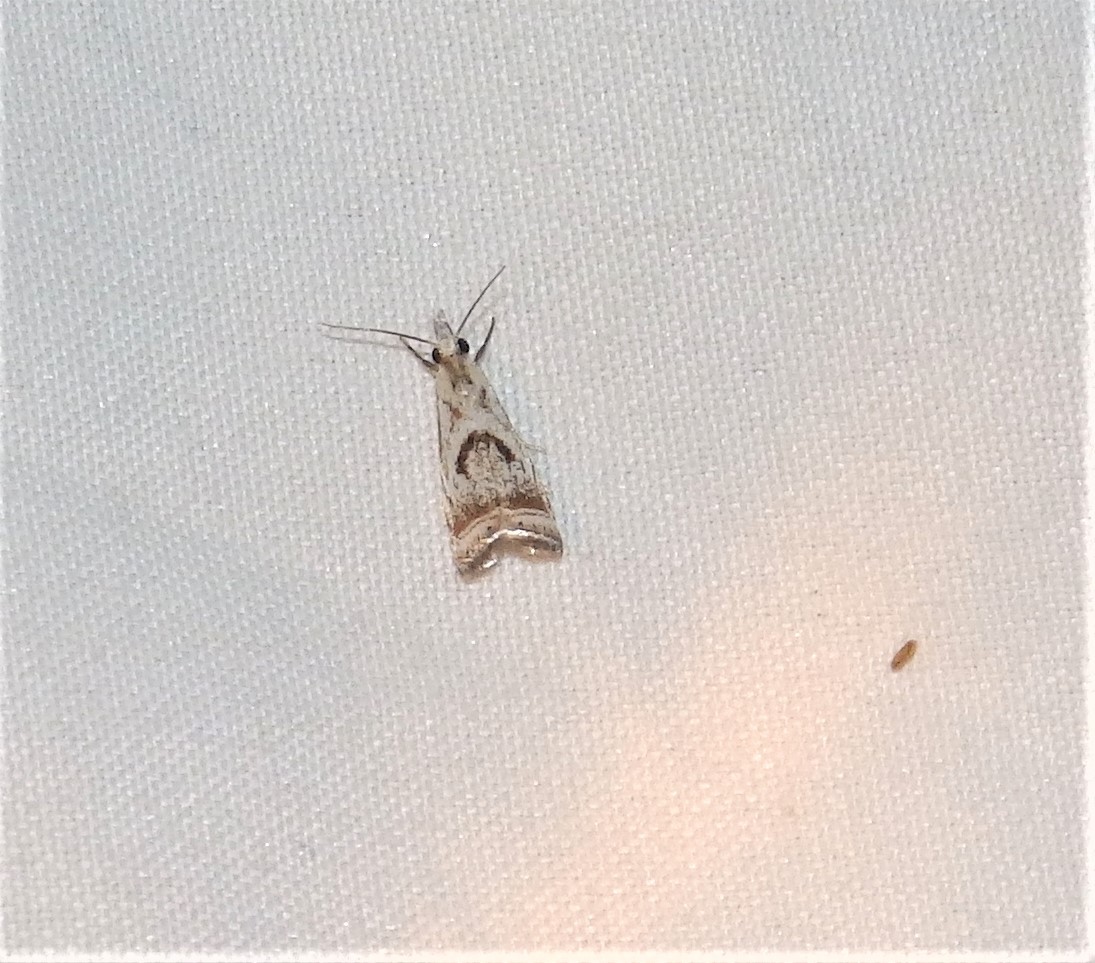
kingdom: Animalia
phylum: Arthropoda
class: Insecta
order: Lepidoptera
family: Crambidae
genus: Microcrambus
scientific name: Microcrambus elegans
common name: Elegant grass-veneer
